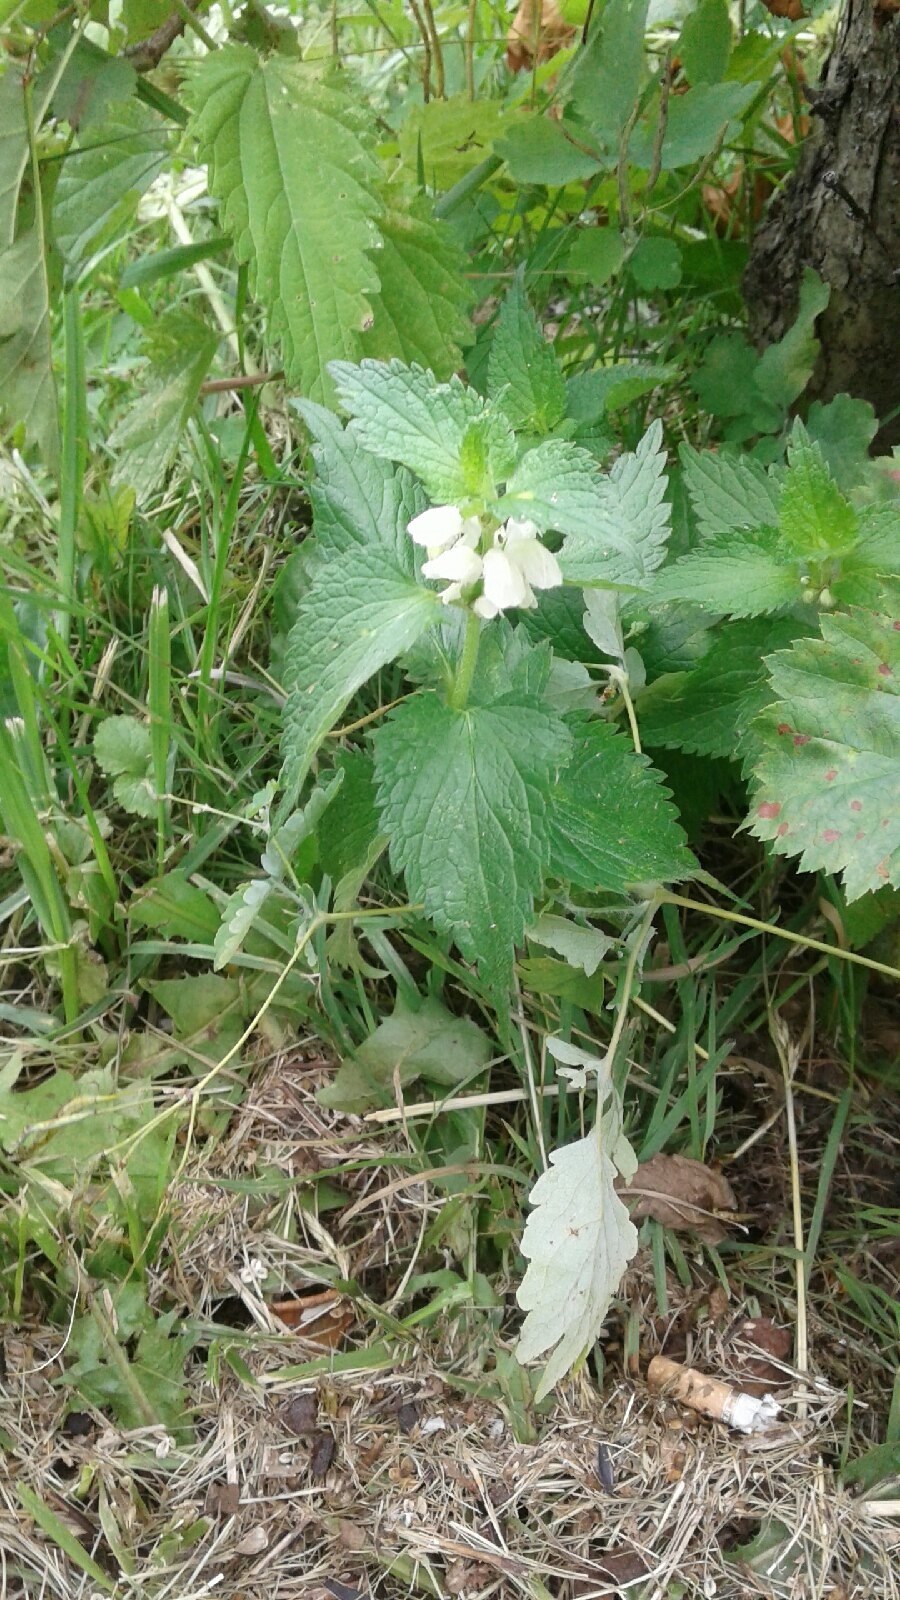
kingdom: Plantae
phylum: Tracheophyta
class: Magnoliopsida
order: Lamiales
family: Lamiaceae
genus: Lamium
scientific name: Lamium album
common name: White dead-nettle
